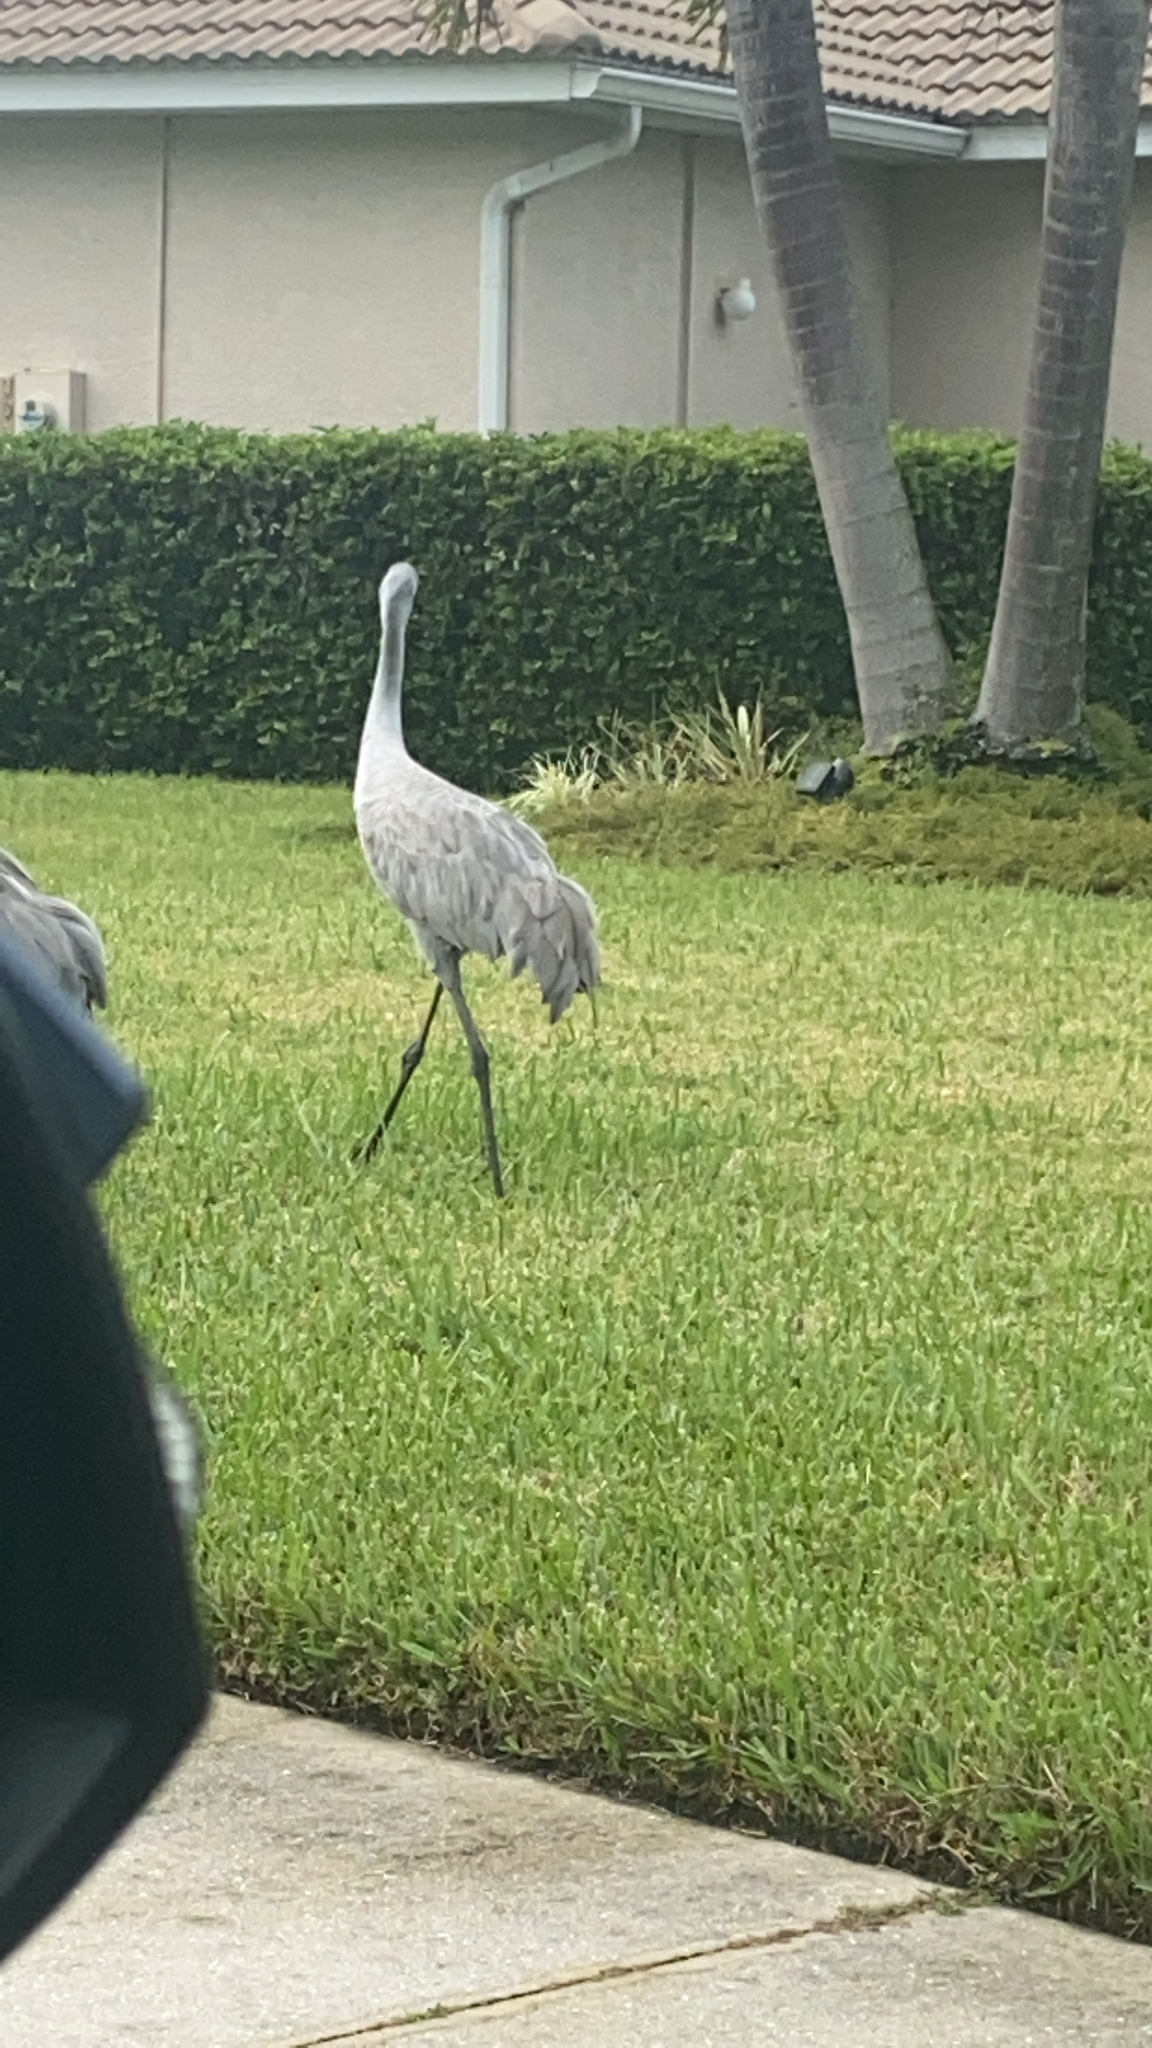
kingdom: Animalia
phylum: Chordata
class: Aves
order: Gruiformes
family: Gruidae
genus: Grus
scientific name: Grus canadensis
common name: Sandhill crane
